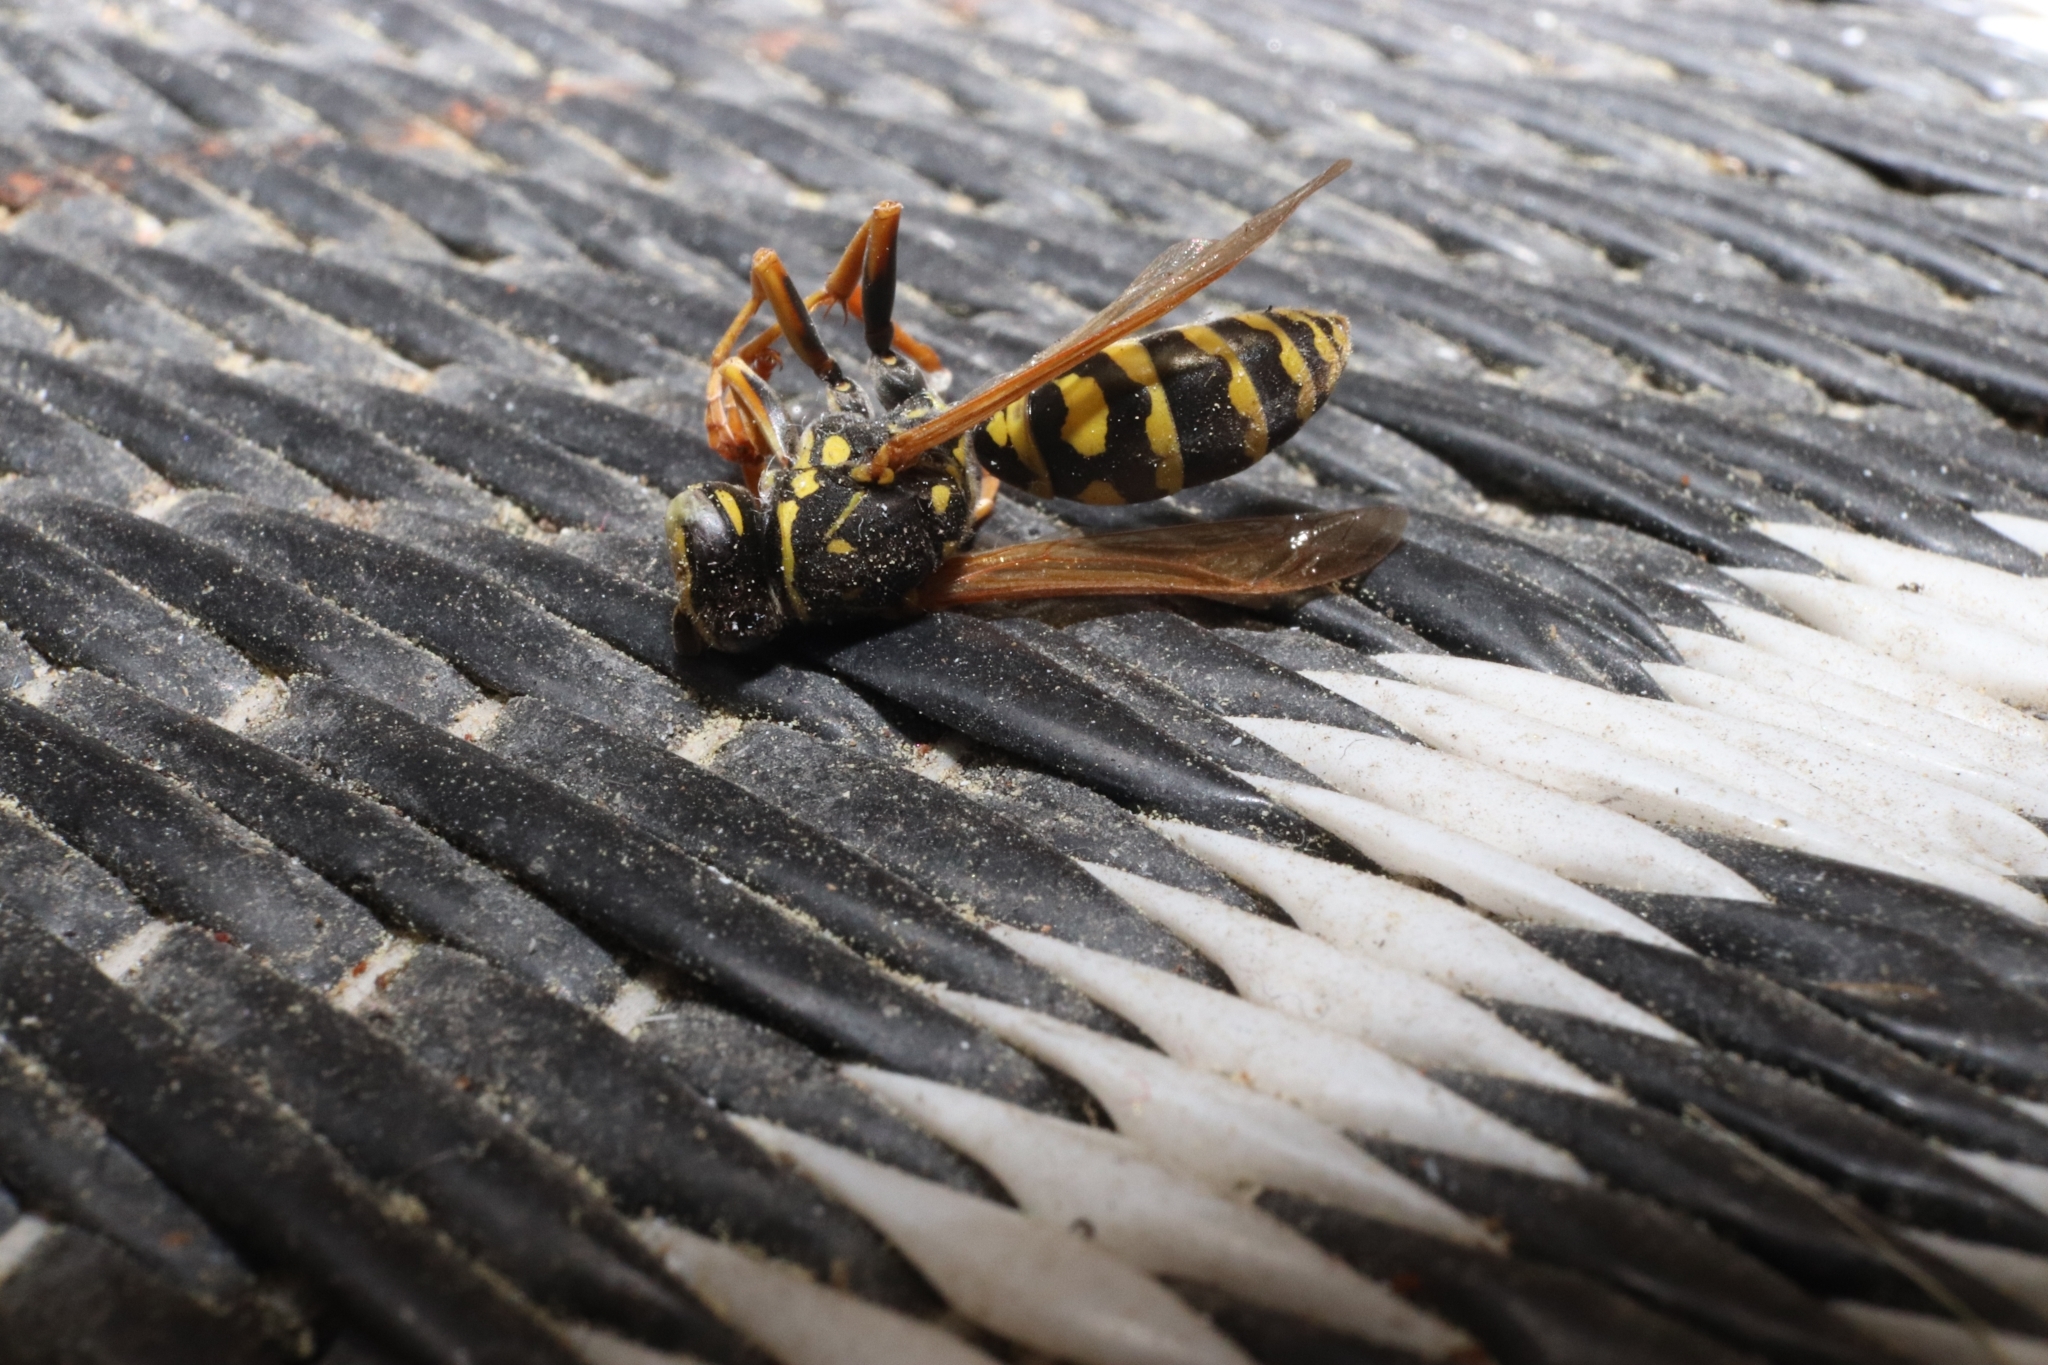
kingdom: Animalia
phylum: Arthropoda
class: Insecta
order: Hymenoptera
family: Eumenidae
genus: Polistes
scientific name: Polistes dominula
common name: Paper wasp
